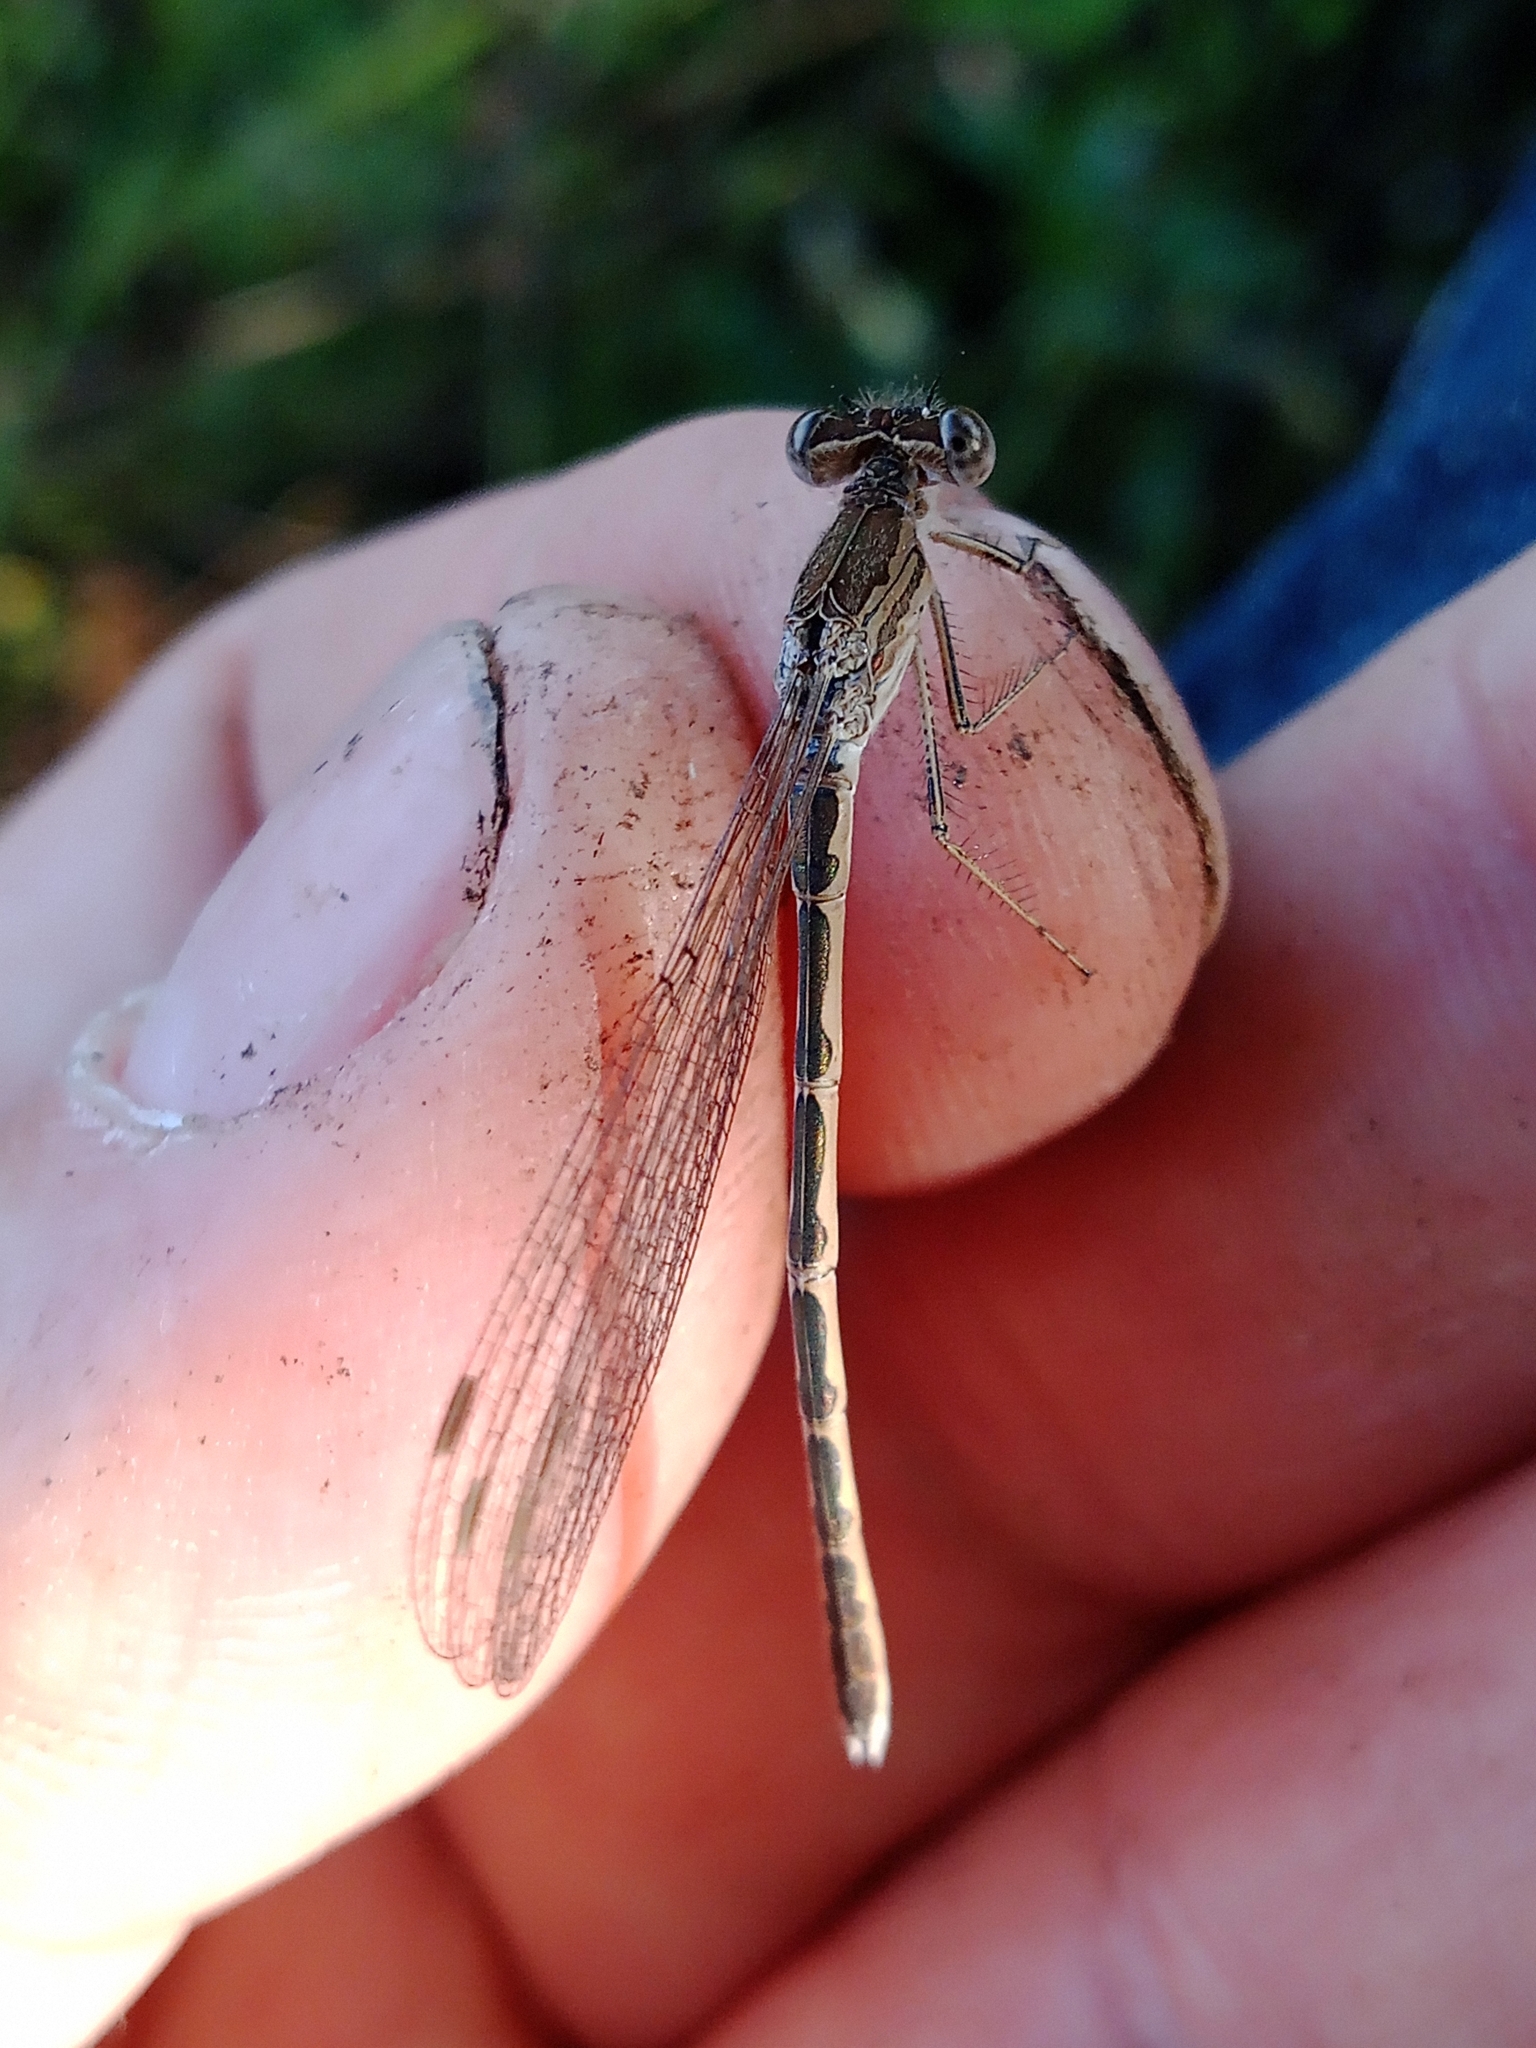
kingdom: Animalia
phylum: Arthropoda
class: Insecta
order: Odonata
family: Lestidae
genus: Sympecma
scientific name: Sympecma paedisca
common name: Siberian winter damsel
